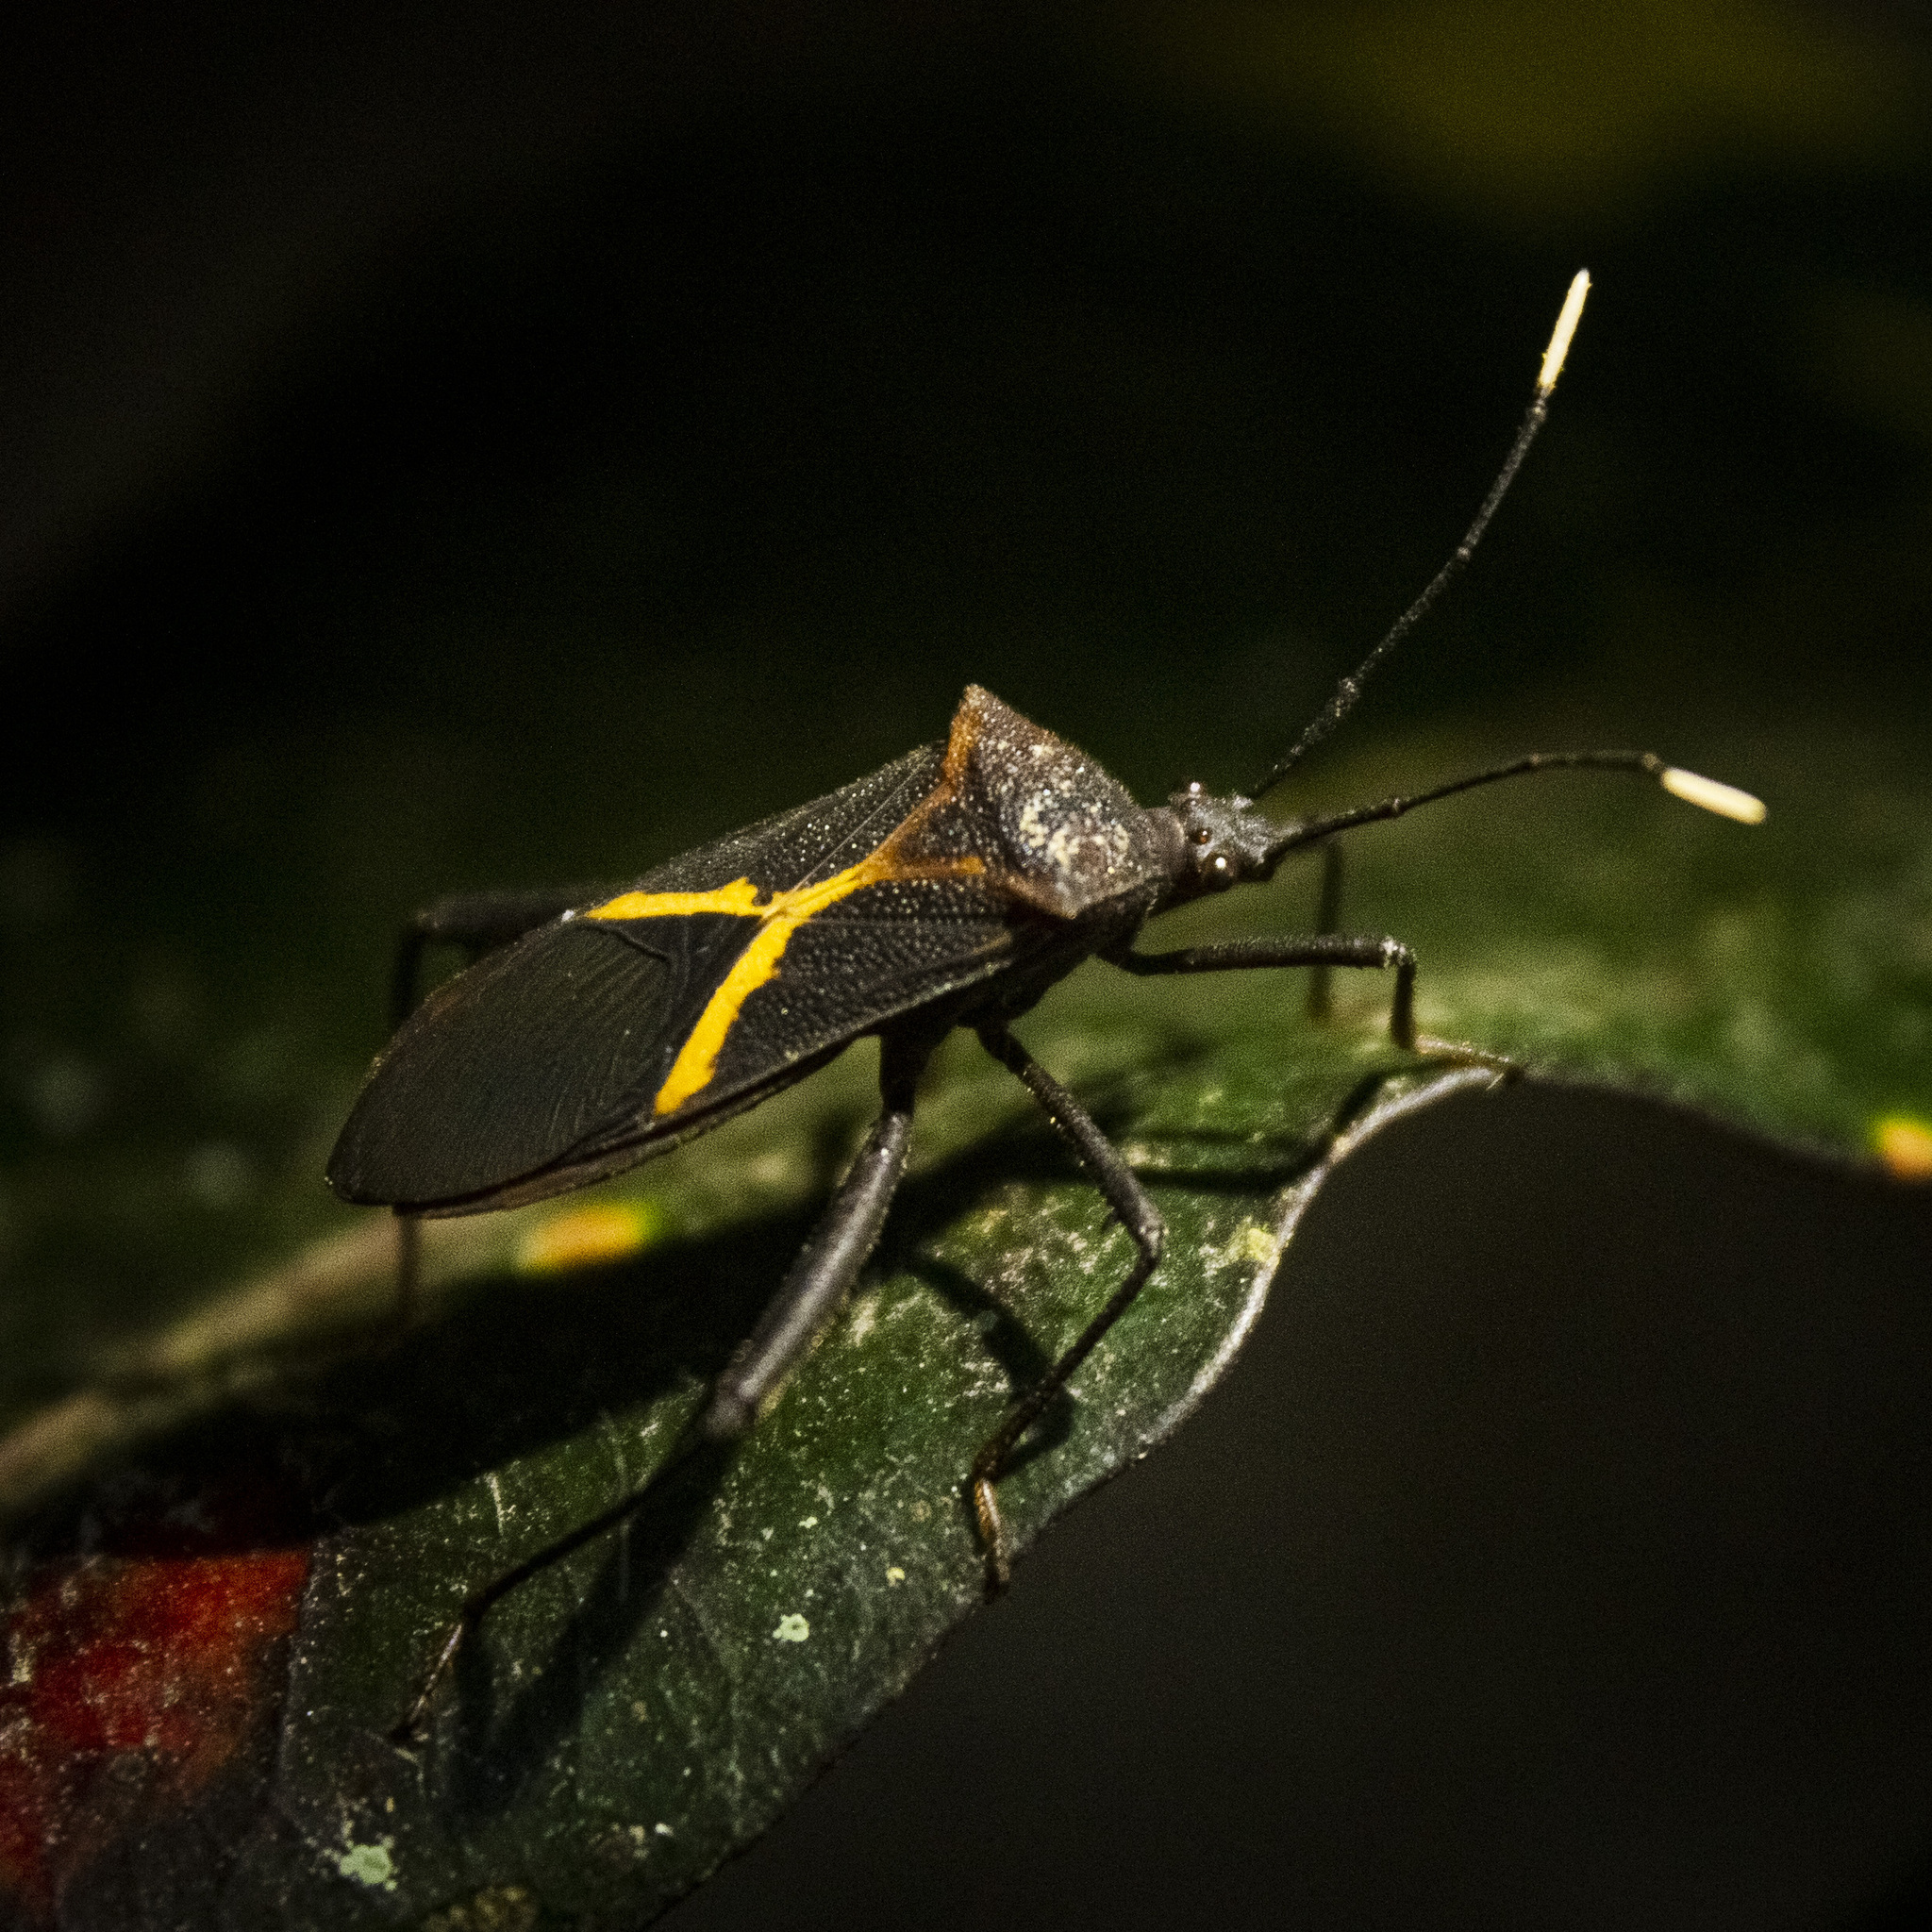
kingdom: Animalia
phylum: Arthropoda
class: Insecta
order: Hemiptera
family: Coreidae
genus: Leptoscelis
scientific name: Leptoscelis tricolor
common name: Heliconia bug
